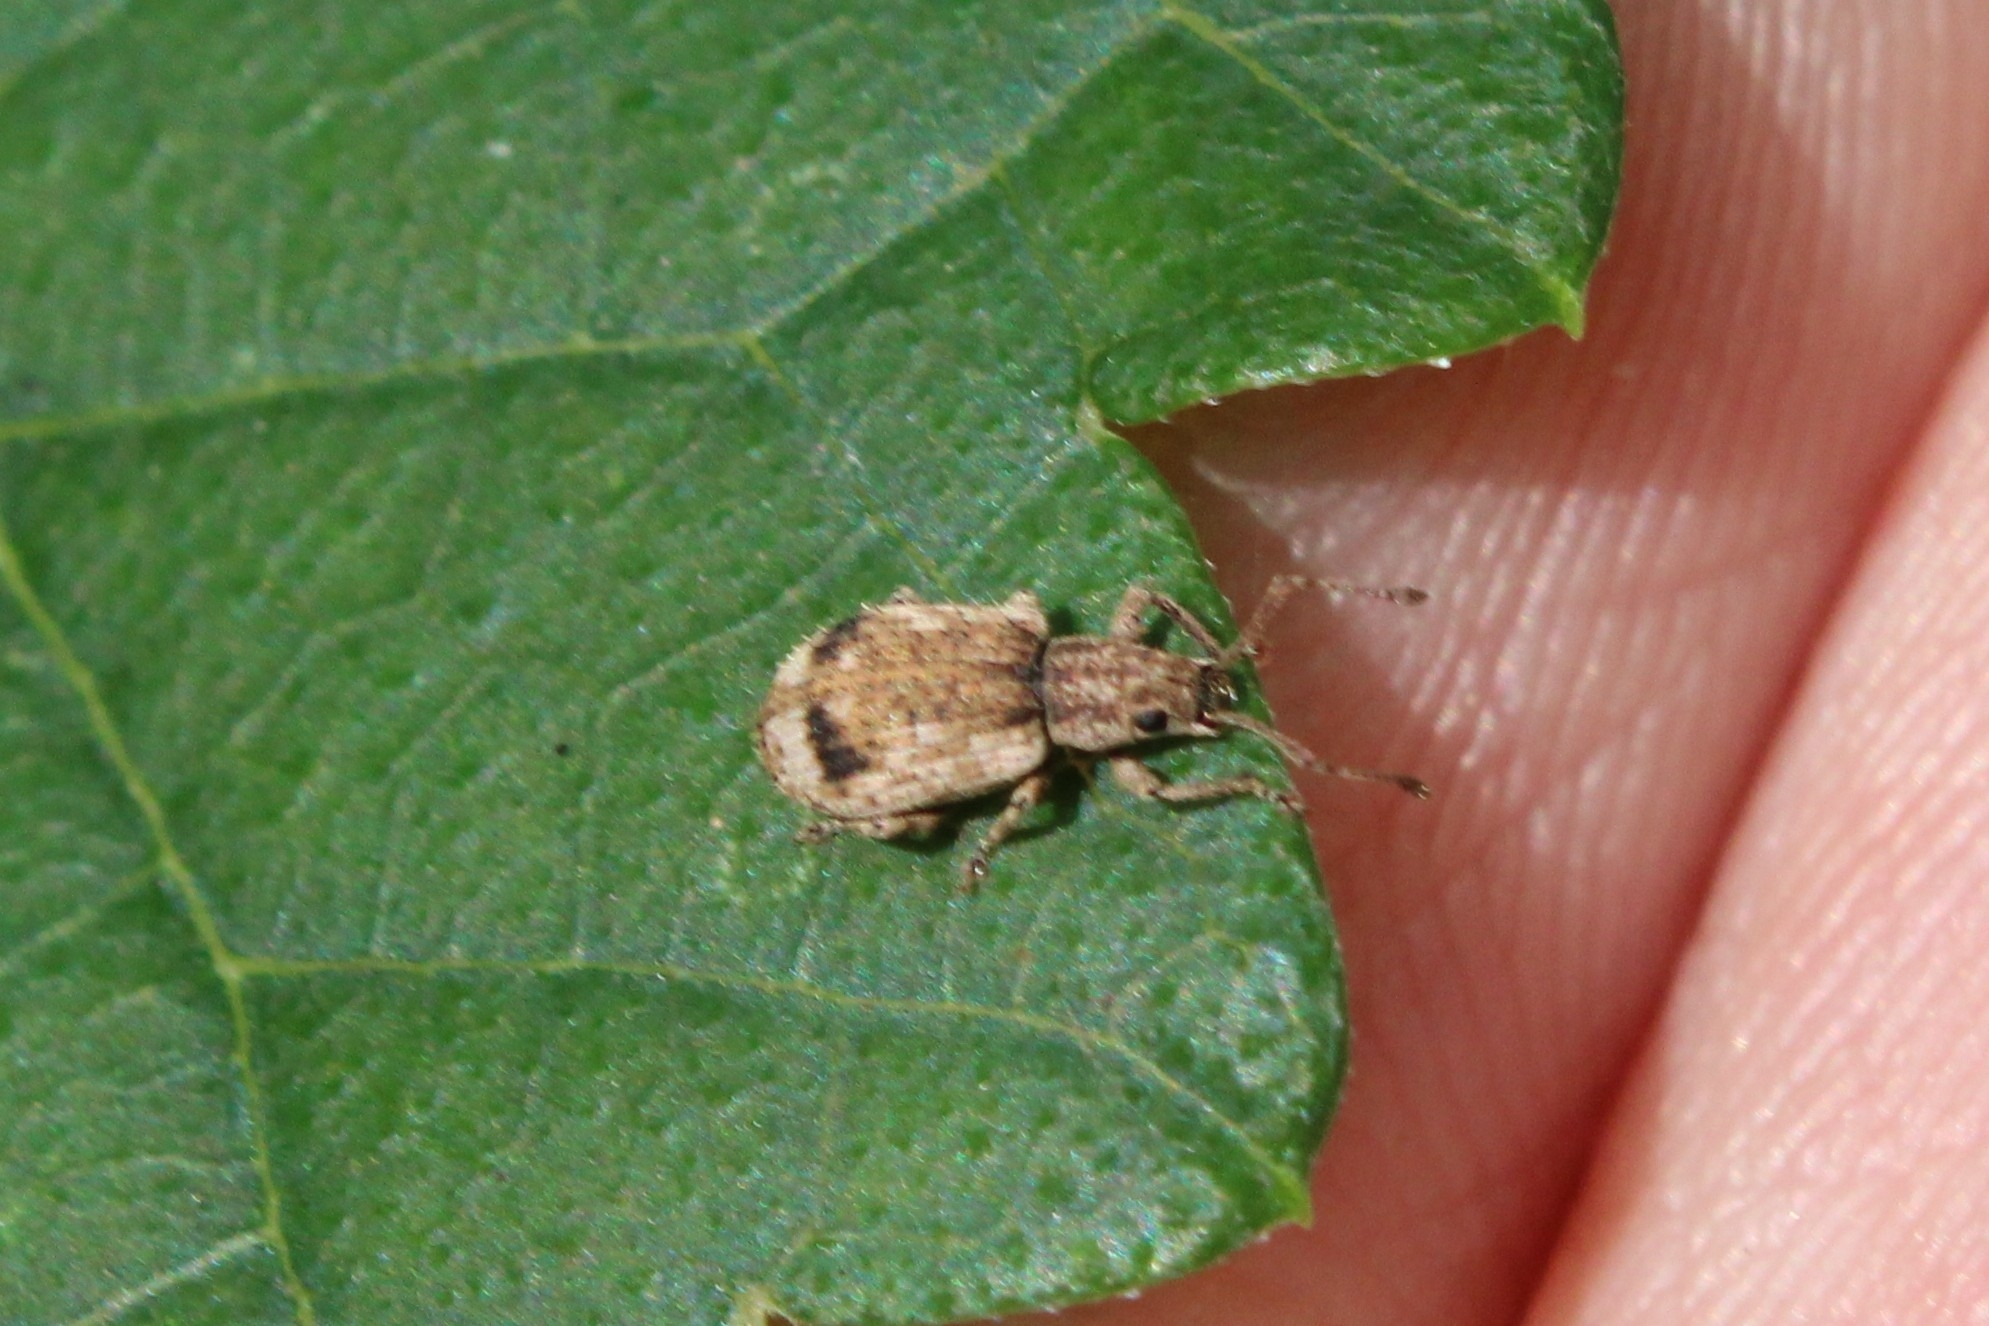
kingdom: Animalia
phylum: Arthropoda
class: Insecta
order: Coleoptera
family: Curculionidae
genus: Pseudoedophrys
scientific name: Pseudoedophrys hilleri
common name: Weevil
